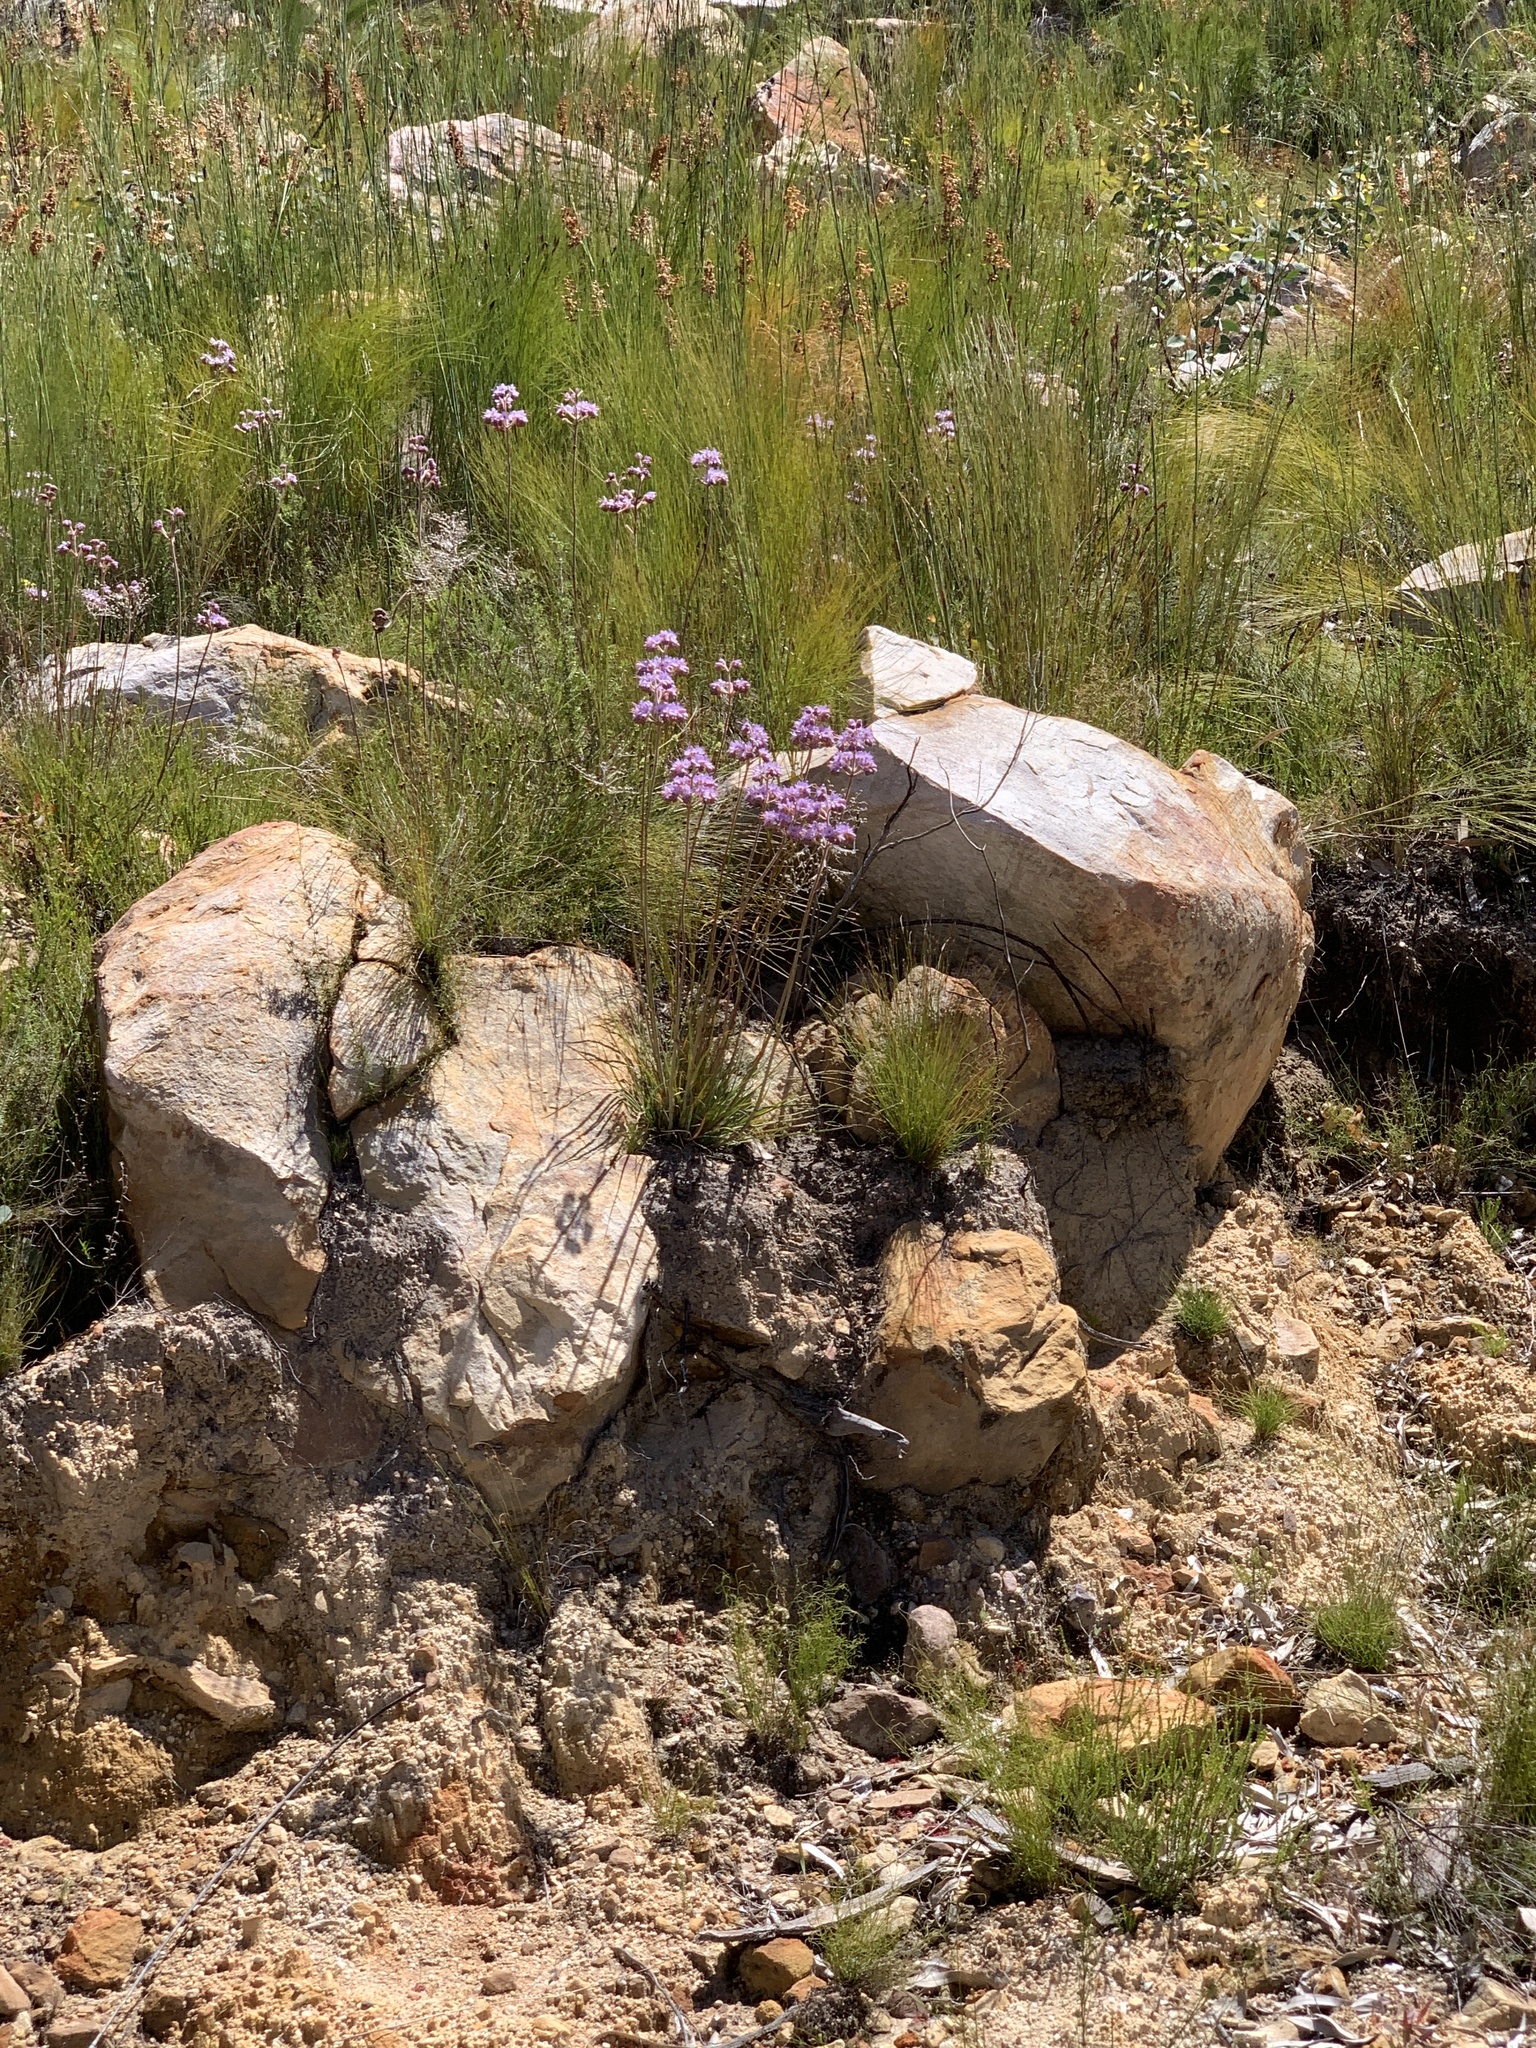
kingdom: Plantae
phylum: Tracheophyta
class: Liliopsida
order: Commelinales
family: Haemodoraceae
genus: Dilatris
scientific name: Dilatris ixioides
